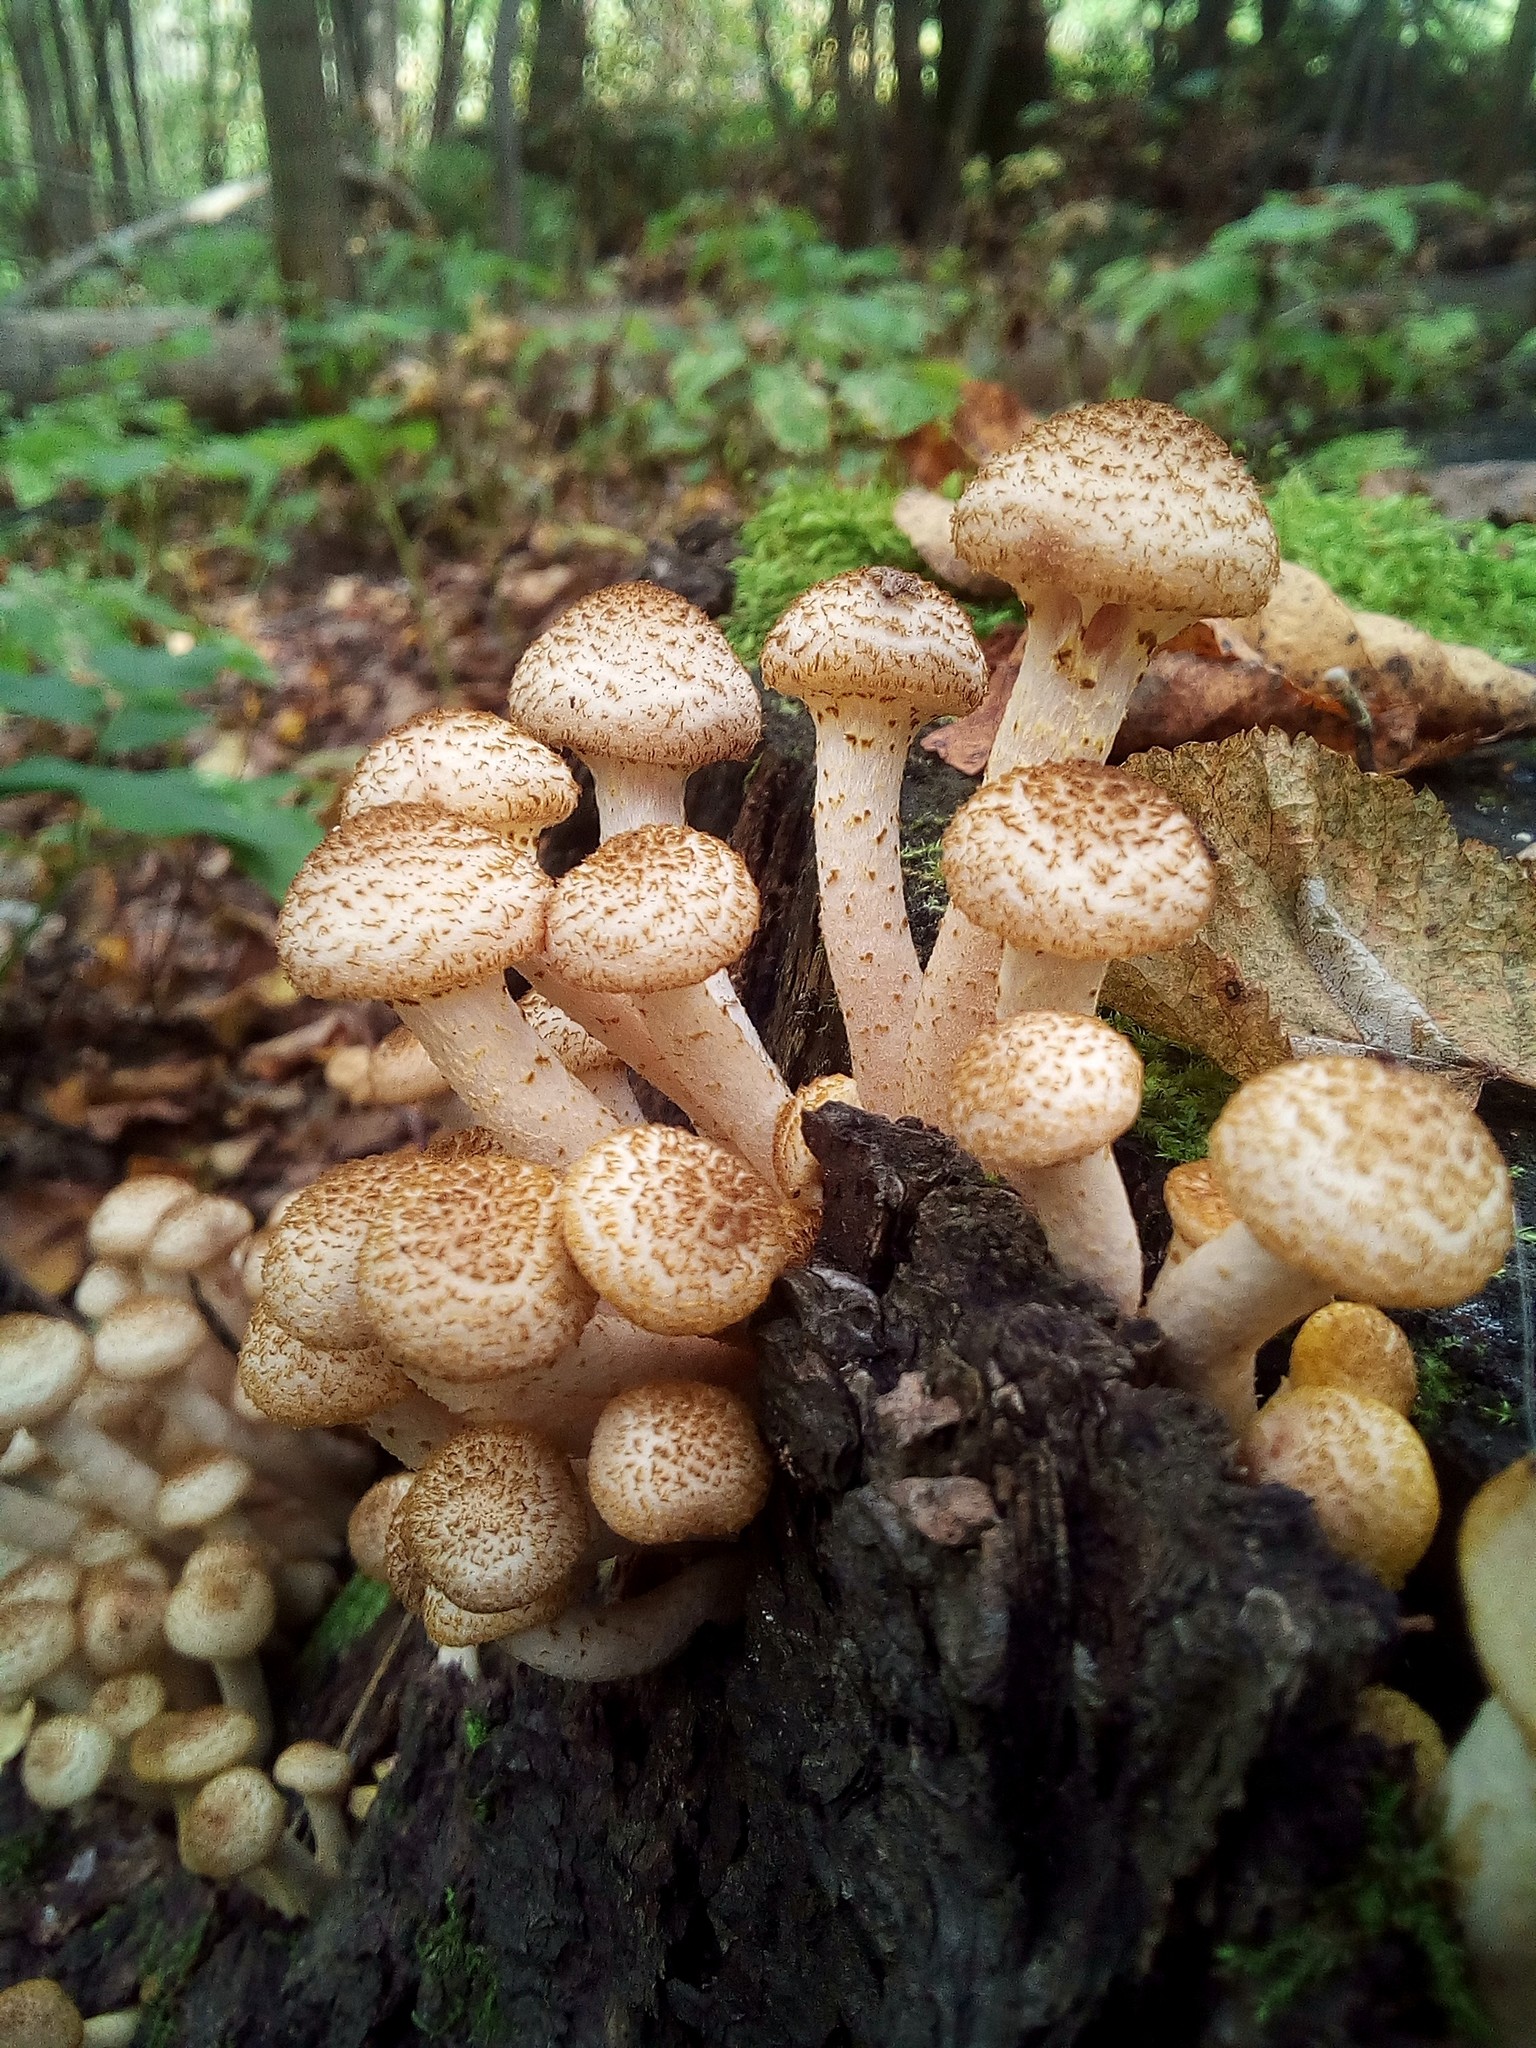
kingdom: Fungi
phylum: Basidiomycota
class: Agaricomycetes
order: Agaricales
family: Physalacriaceae
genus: Armillaria
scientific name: Armillaria borealis
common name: Northern honey fungus
